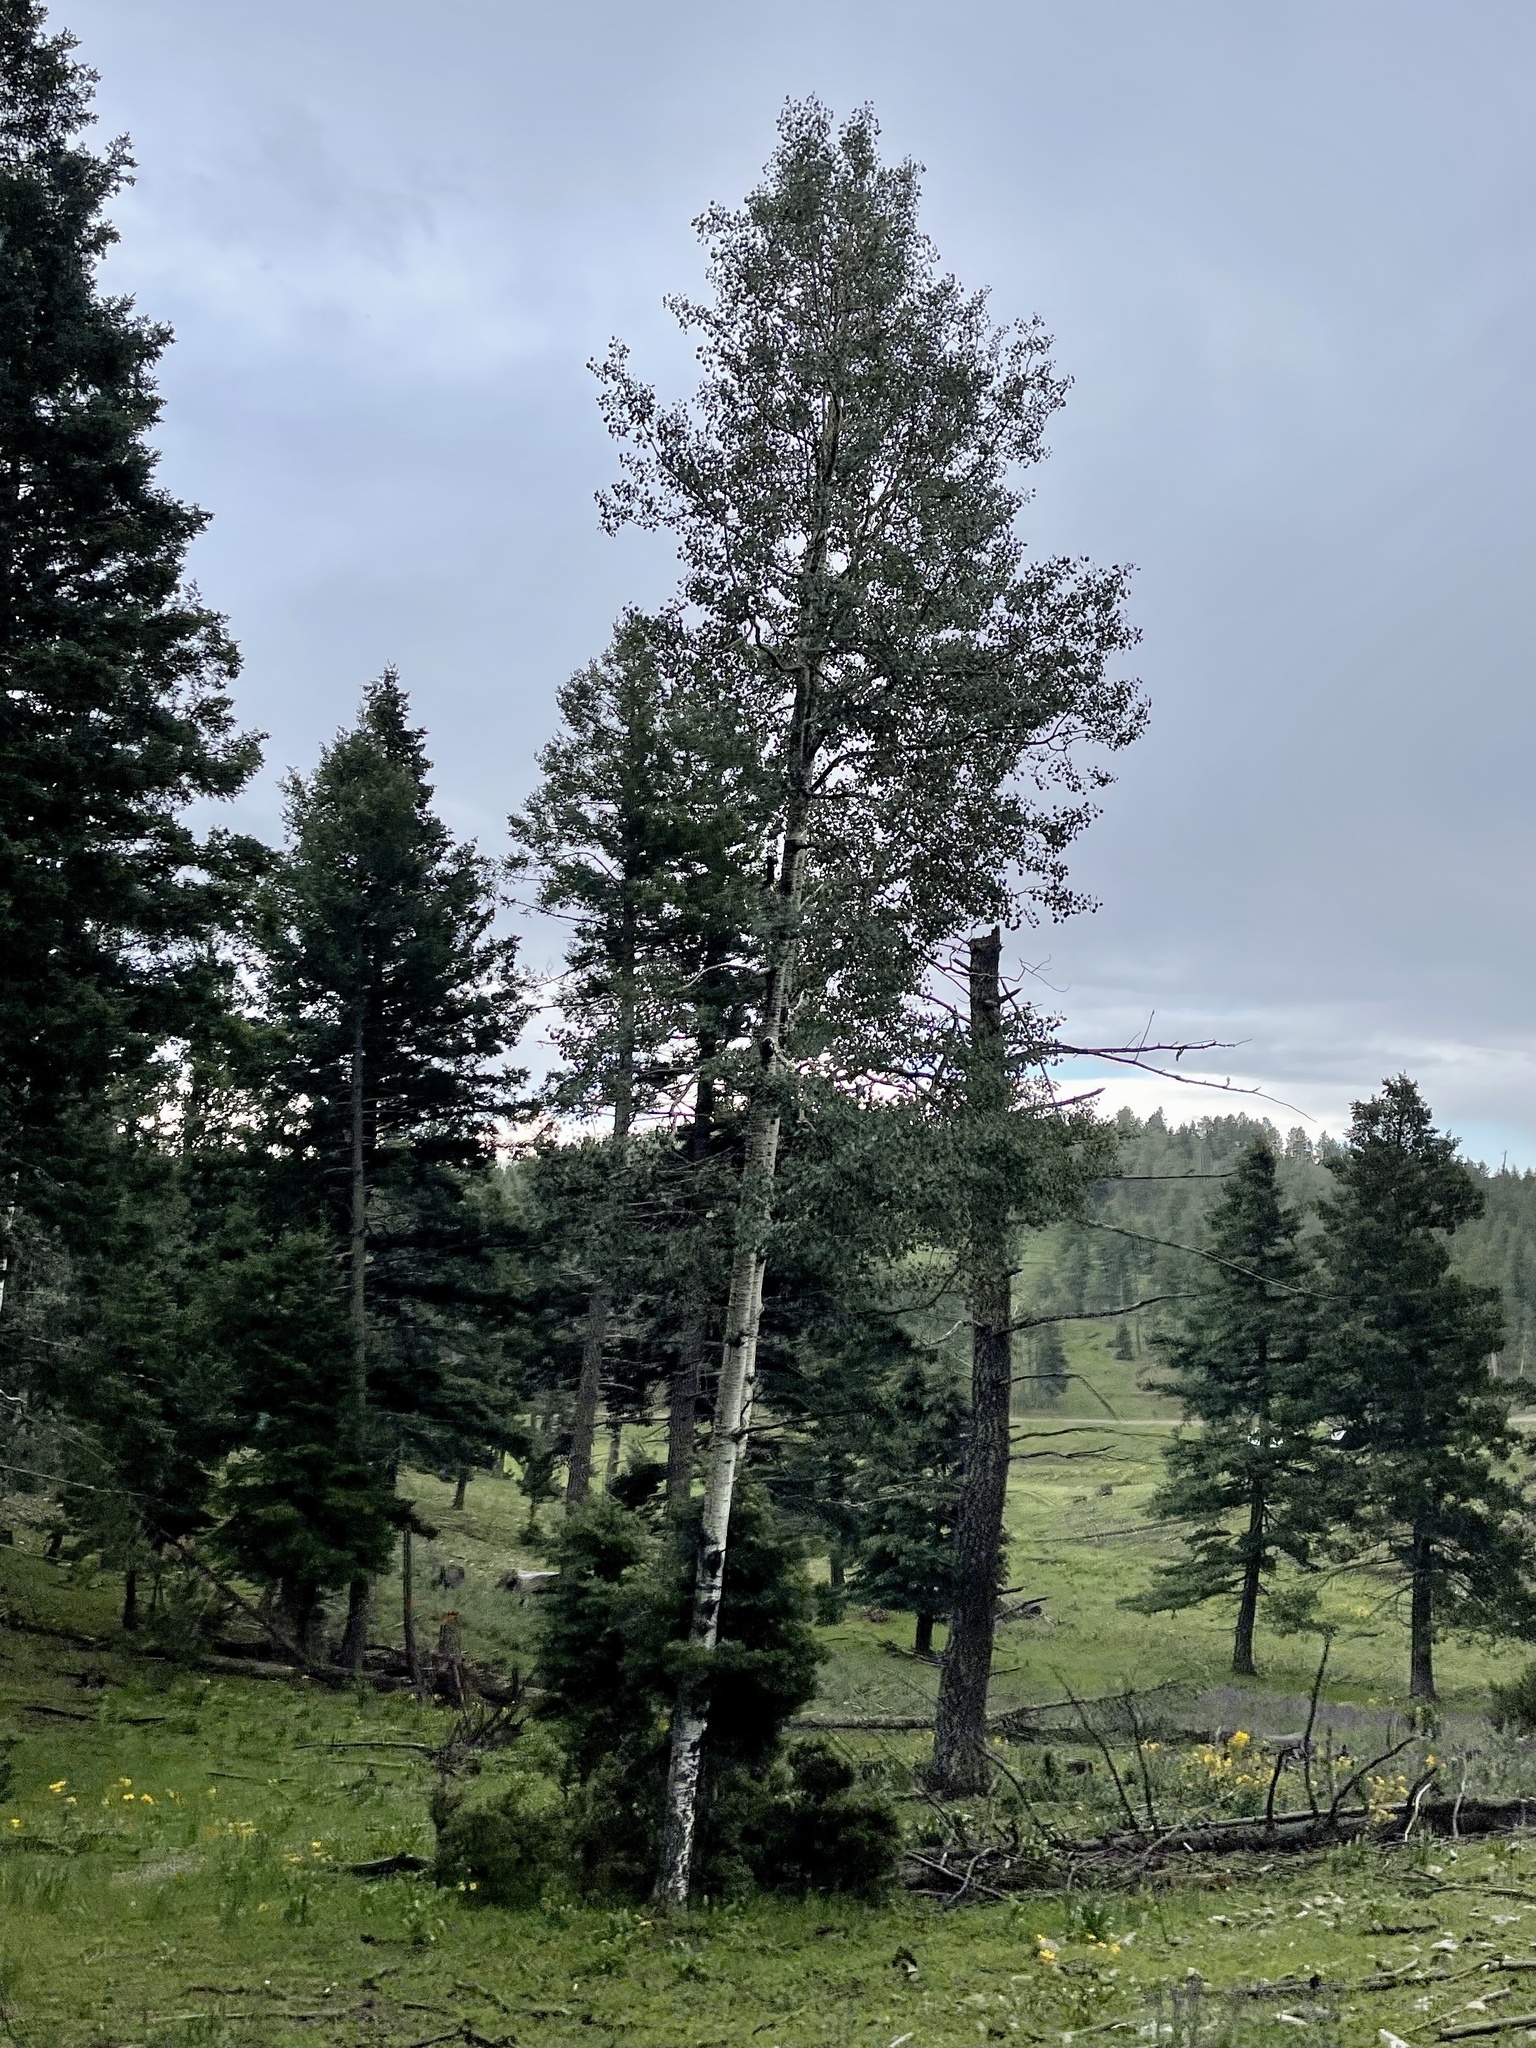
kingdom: Plantae
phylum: Tracheophyta
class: Magnoliopsida
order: Malpighiales
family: Salicaceae
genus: Populus
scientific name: Populus tremuloides
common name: Quaking aspen
